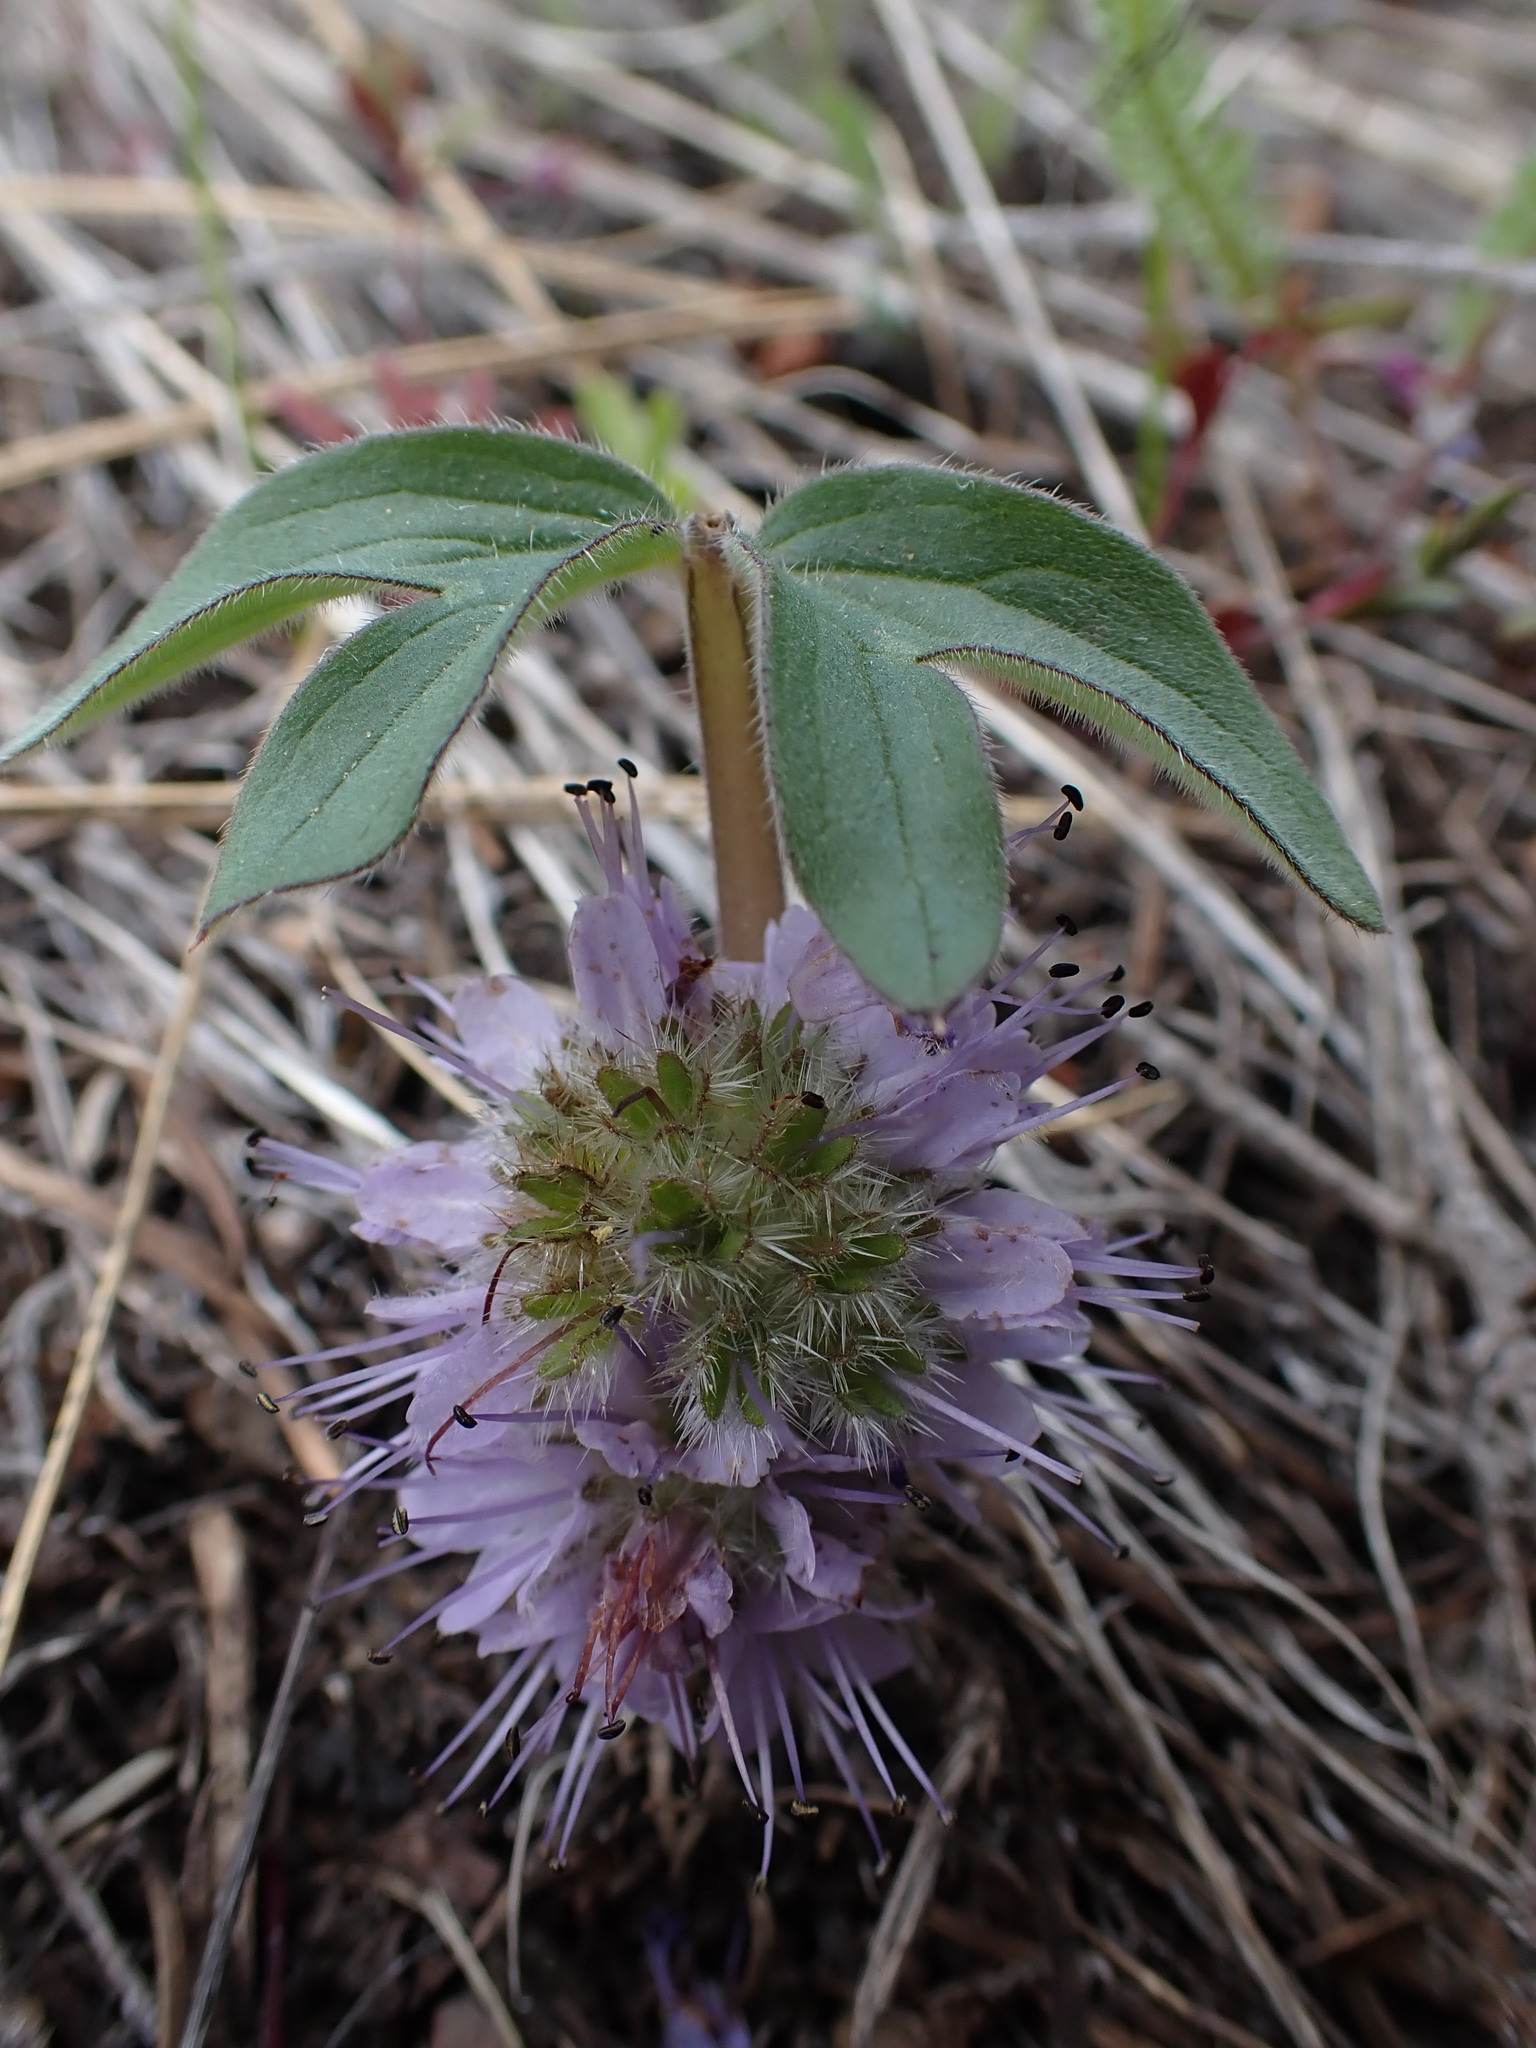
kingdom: Plantae
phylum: Tracheophyta
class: Magnoliopsida
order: Boraginales
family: Hydrophyllaceae
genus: Hydrophyllum
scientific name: Hydrophyllum capitatum
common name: Woollen-breeches
